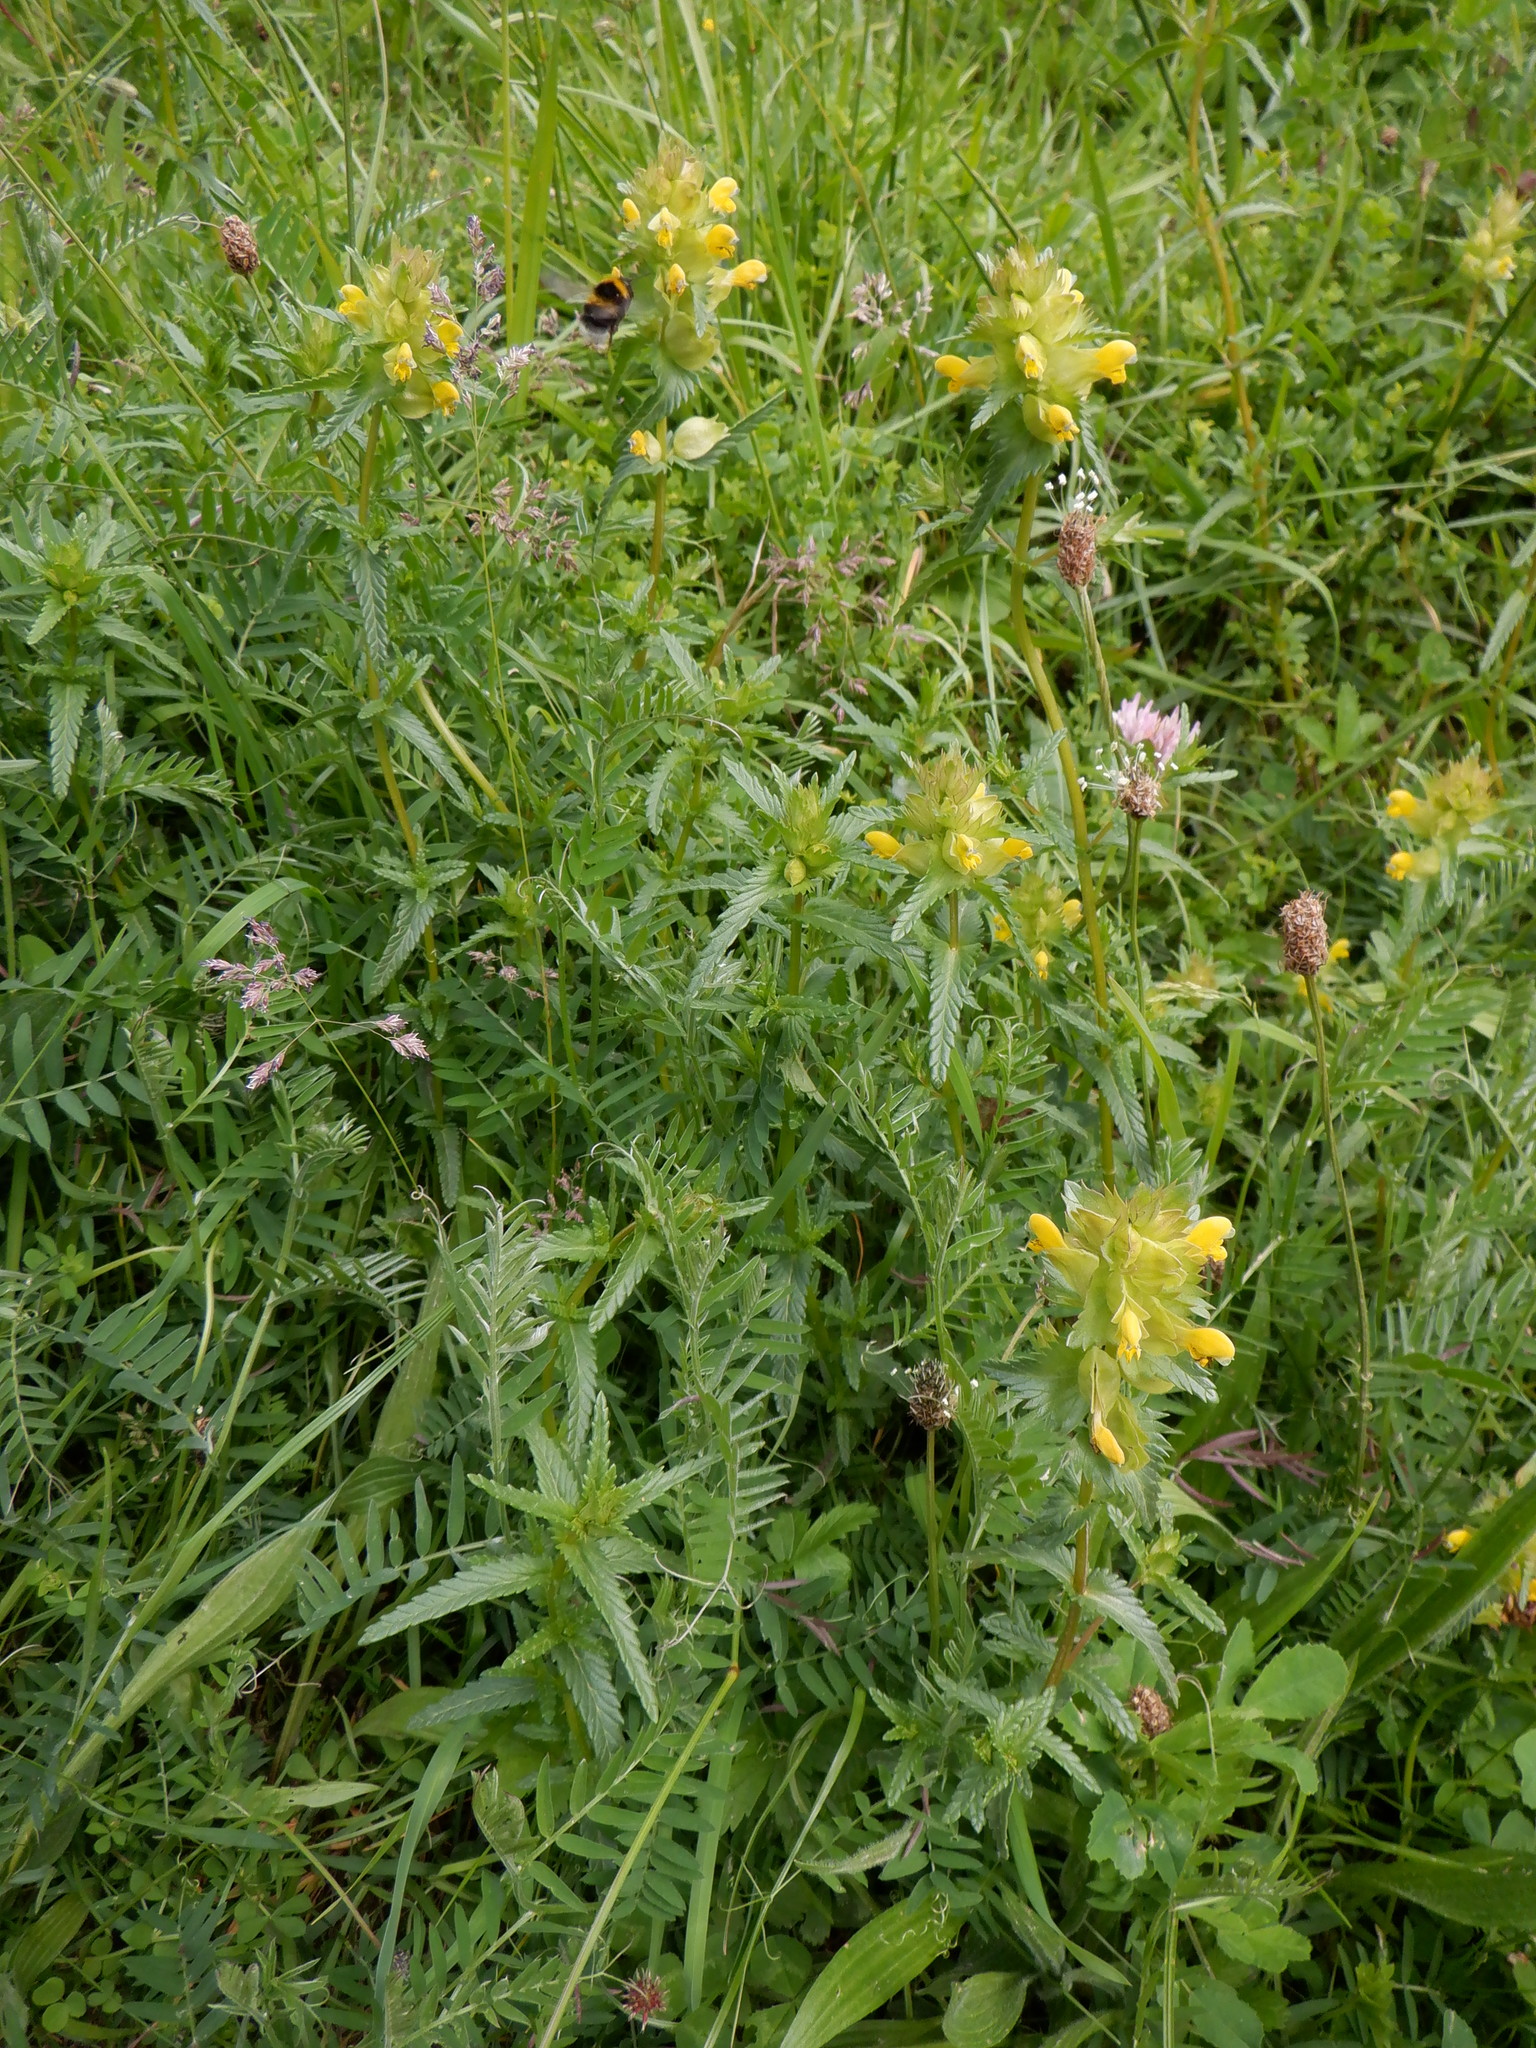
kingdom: Plantae
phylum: Tracheophyta
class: Magnoliopsida
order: Lamiales
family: Orobanchaceae
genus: Rhinanthus
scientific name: Rhinanthus minor
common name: Yellow-rattle
